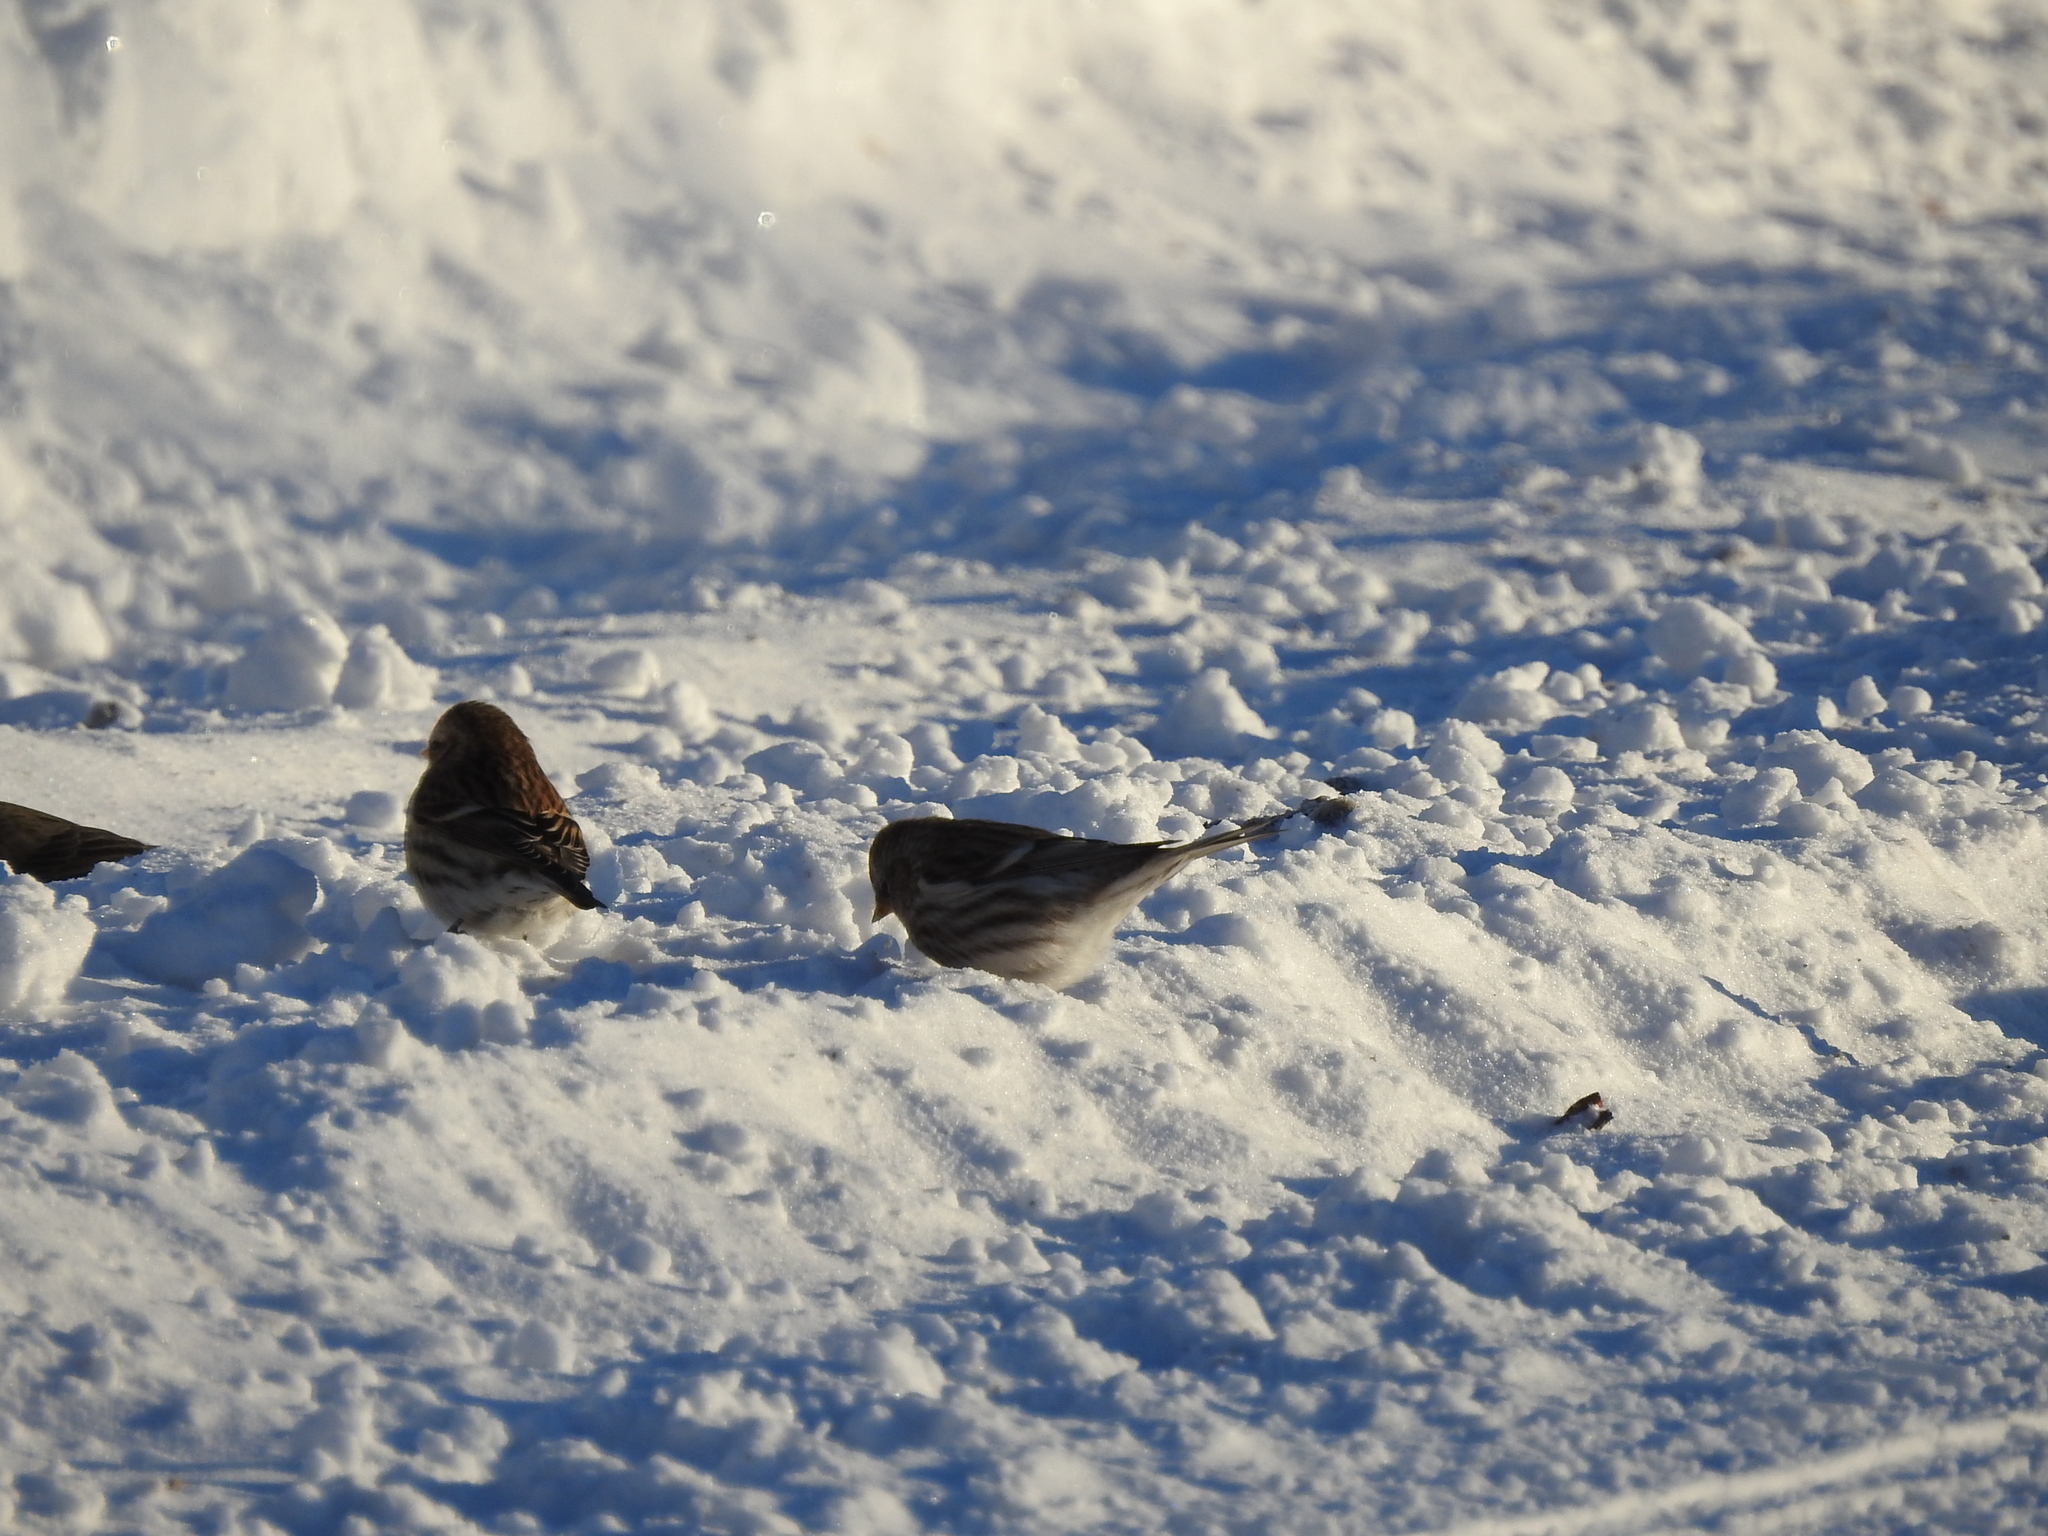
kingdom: Animalia
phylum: Chordata
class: Aves
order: Passeriformes
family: Fringillidae
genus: Acanthis
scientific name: Acanthis flammea
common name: Common redpoll
